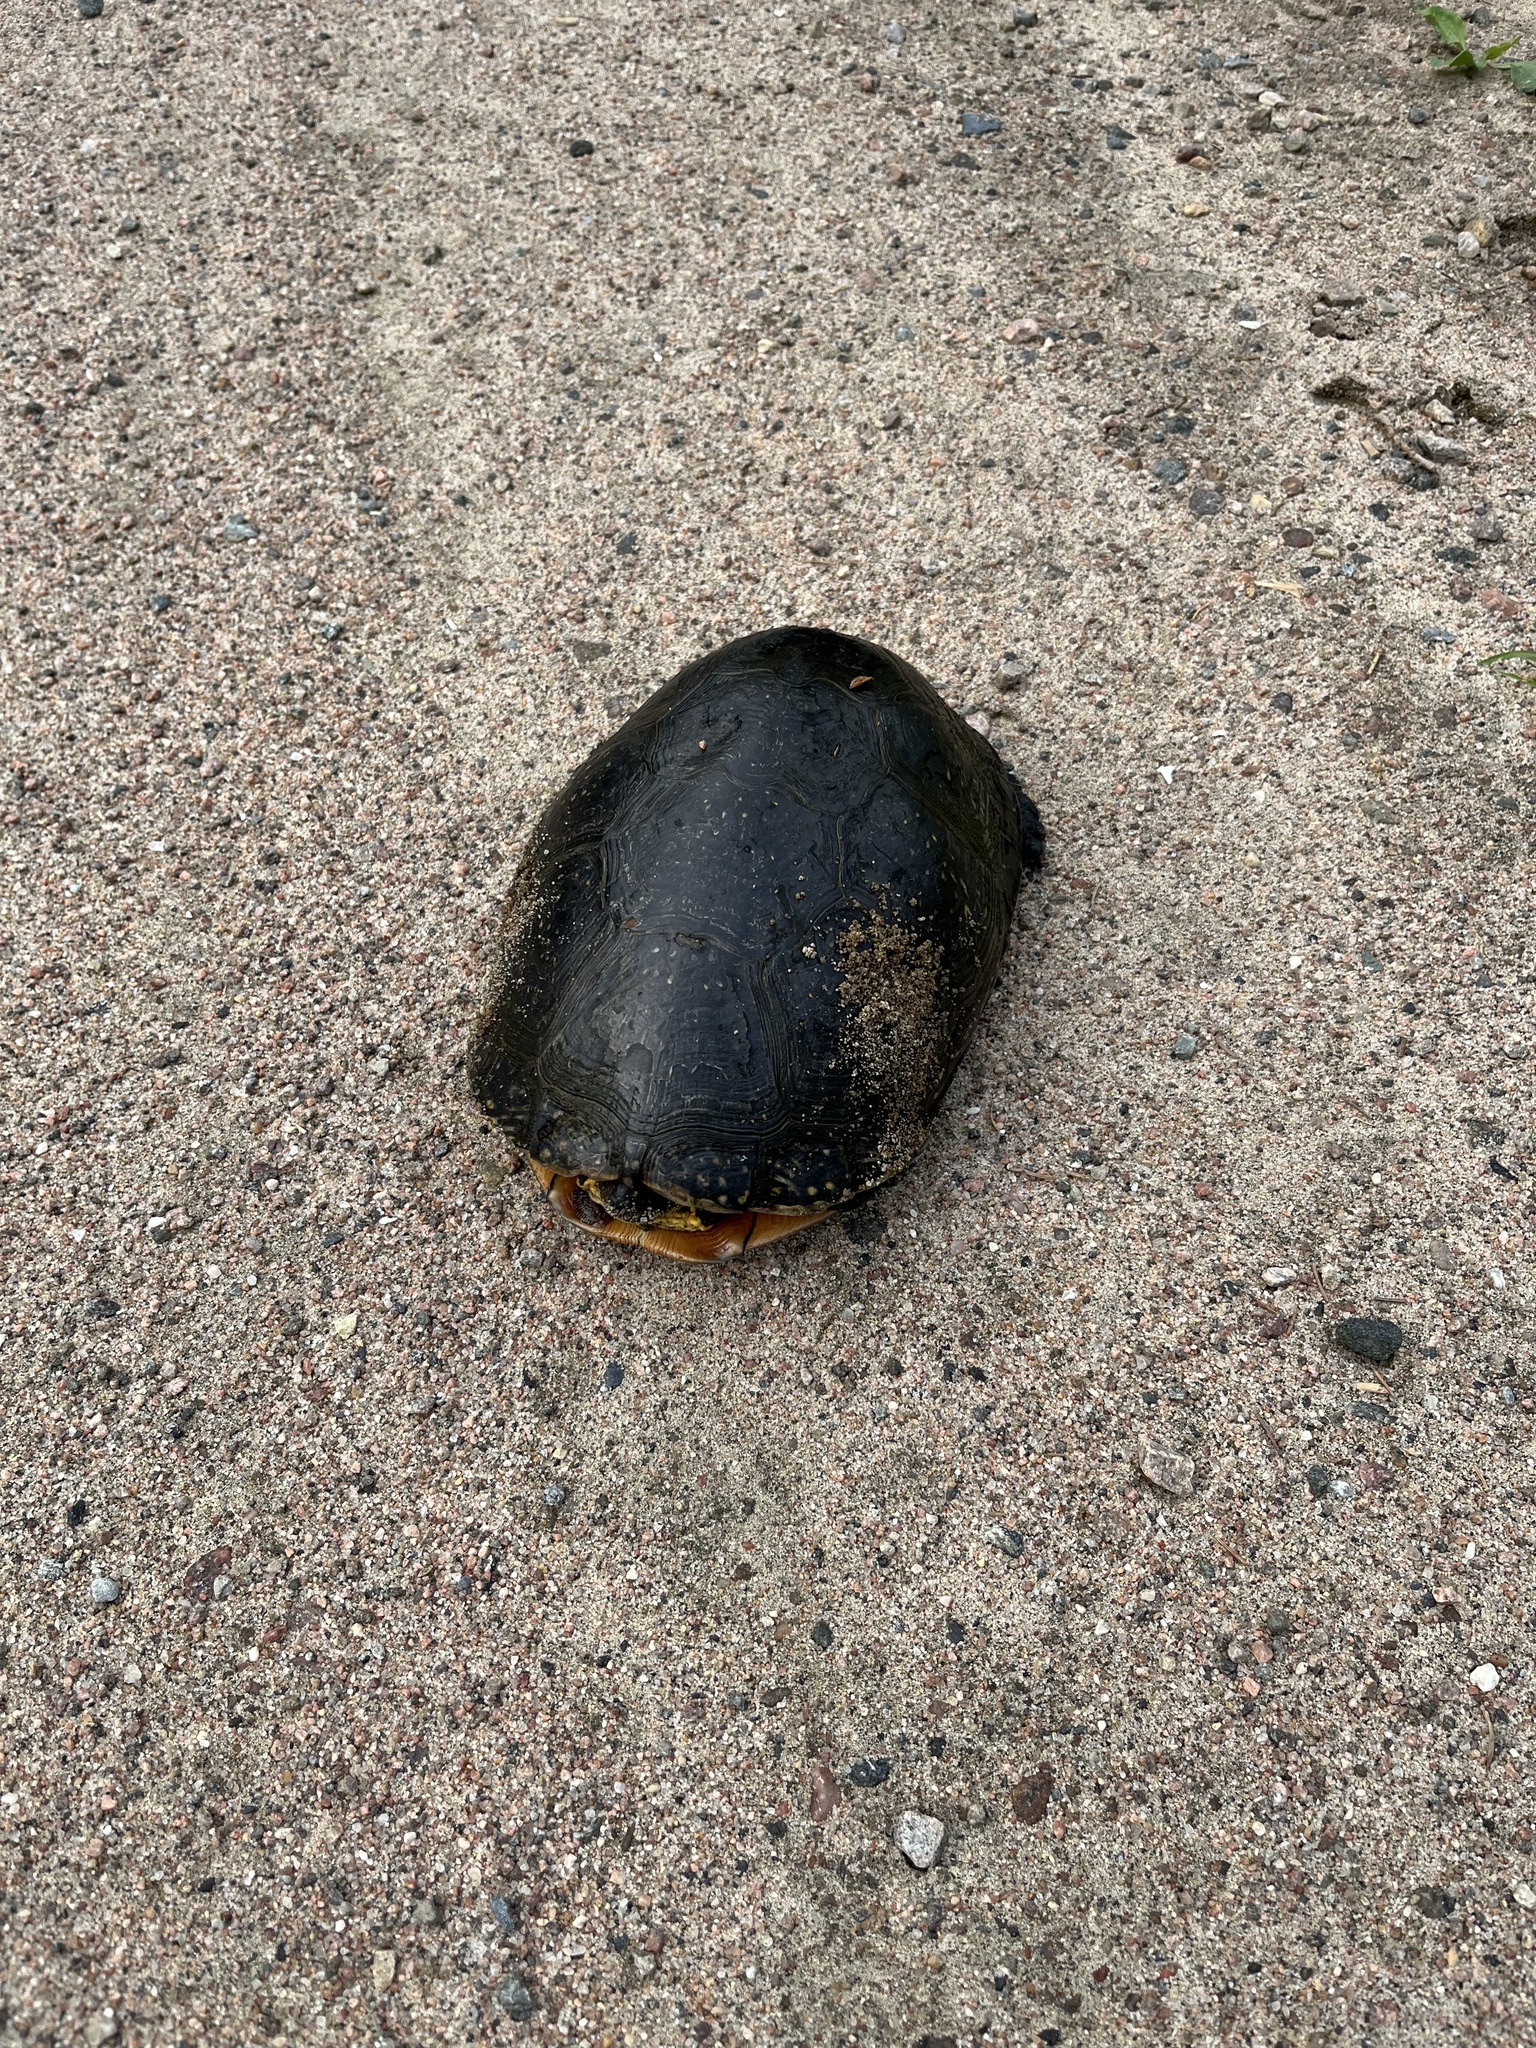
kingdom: Animalia
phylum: Chordata
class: Testudines
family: Emydidae
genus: Emys
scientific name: Emys blandingii
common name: Blanding's turtle
